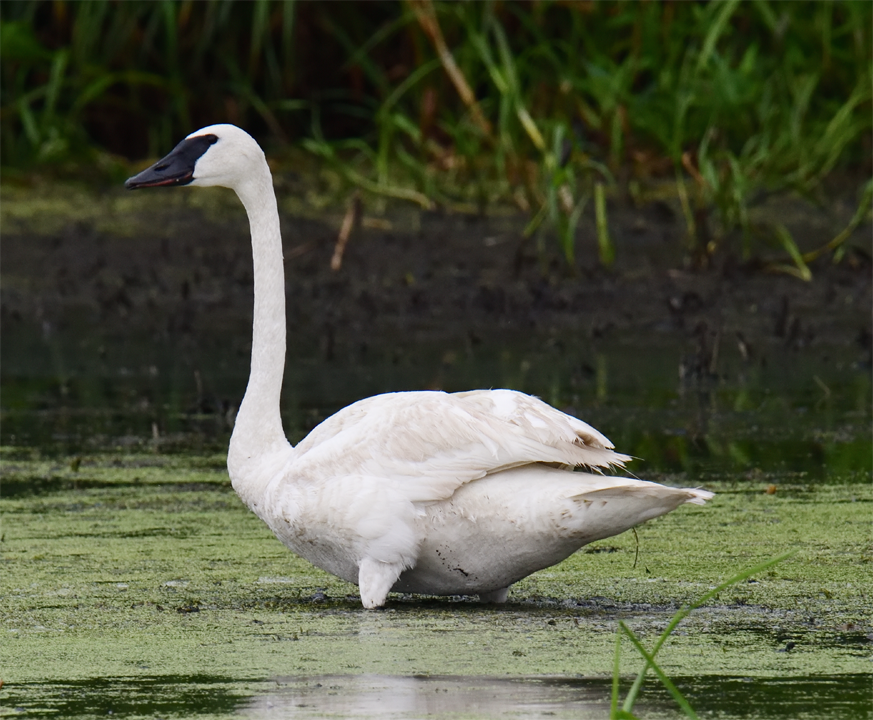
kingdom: Animalia
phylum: Chordata
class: Aves
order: Anseriformes
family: Anatidae
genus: Cygnus
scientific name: Cygnus buccinator
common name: Trumpeter swan
